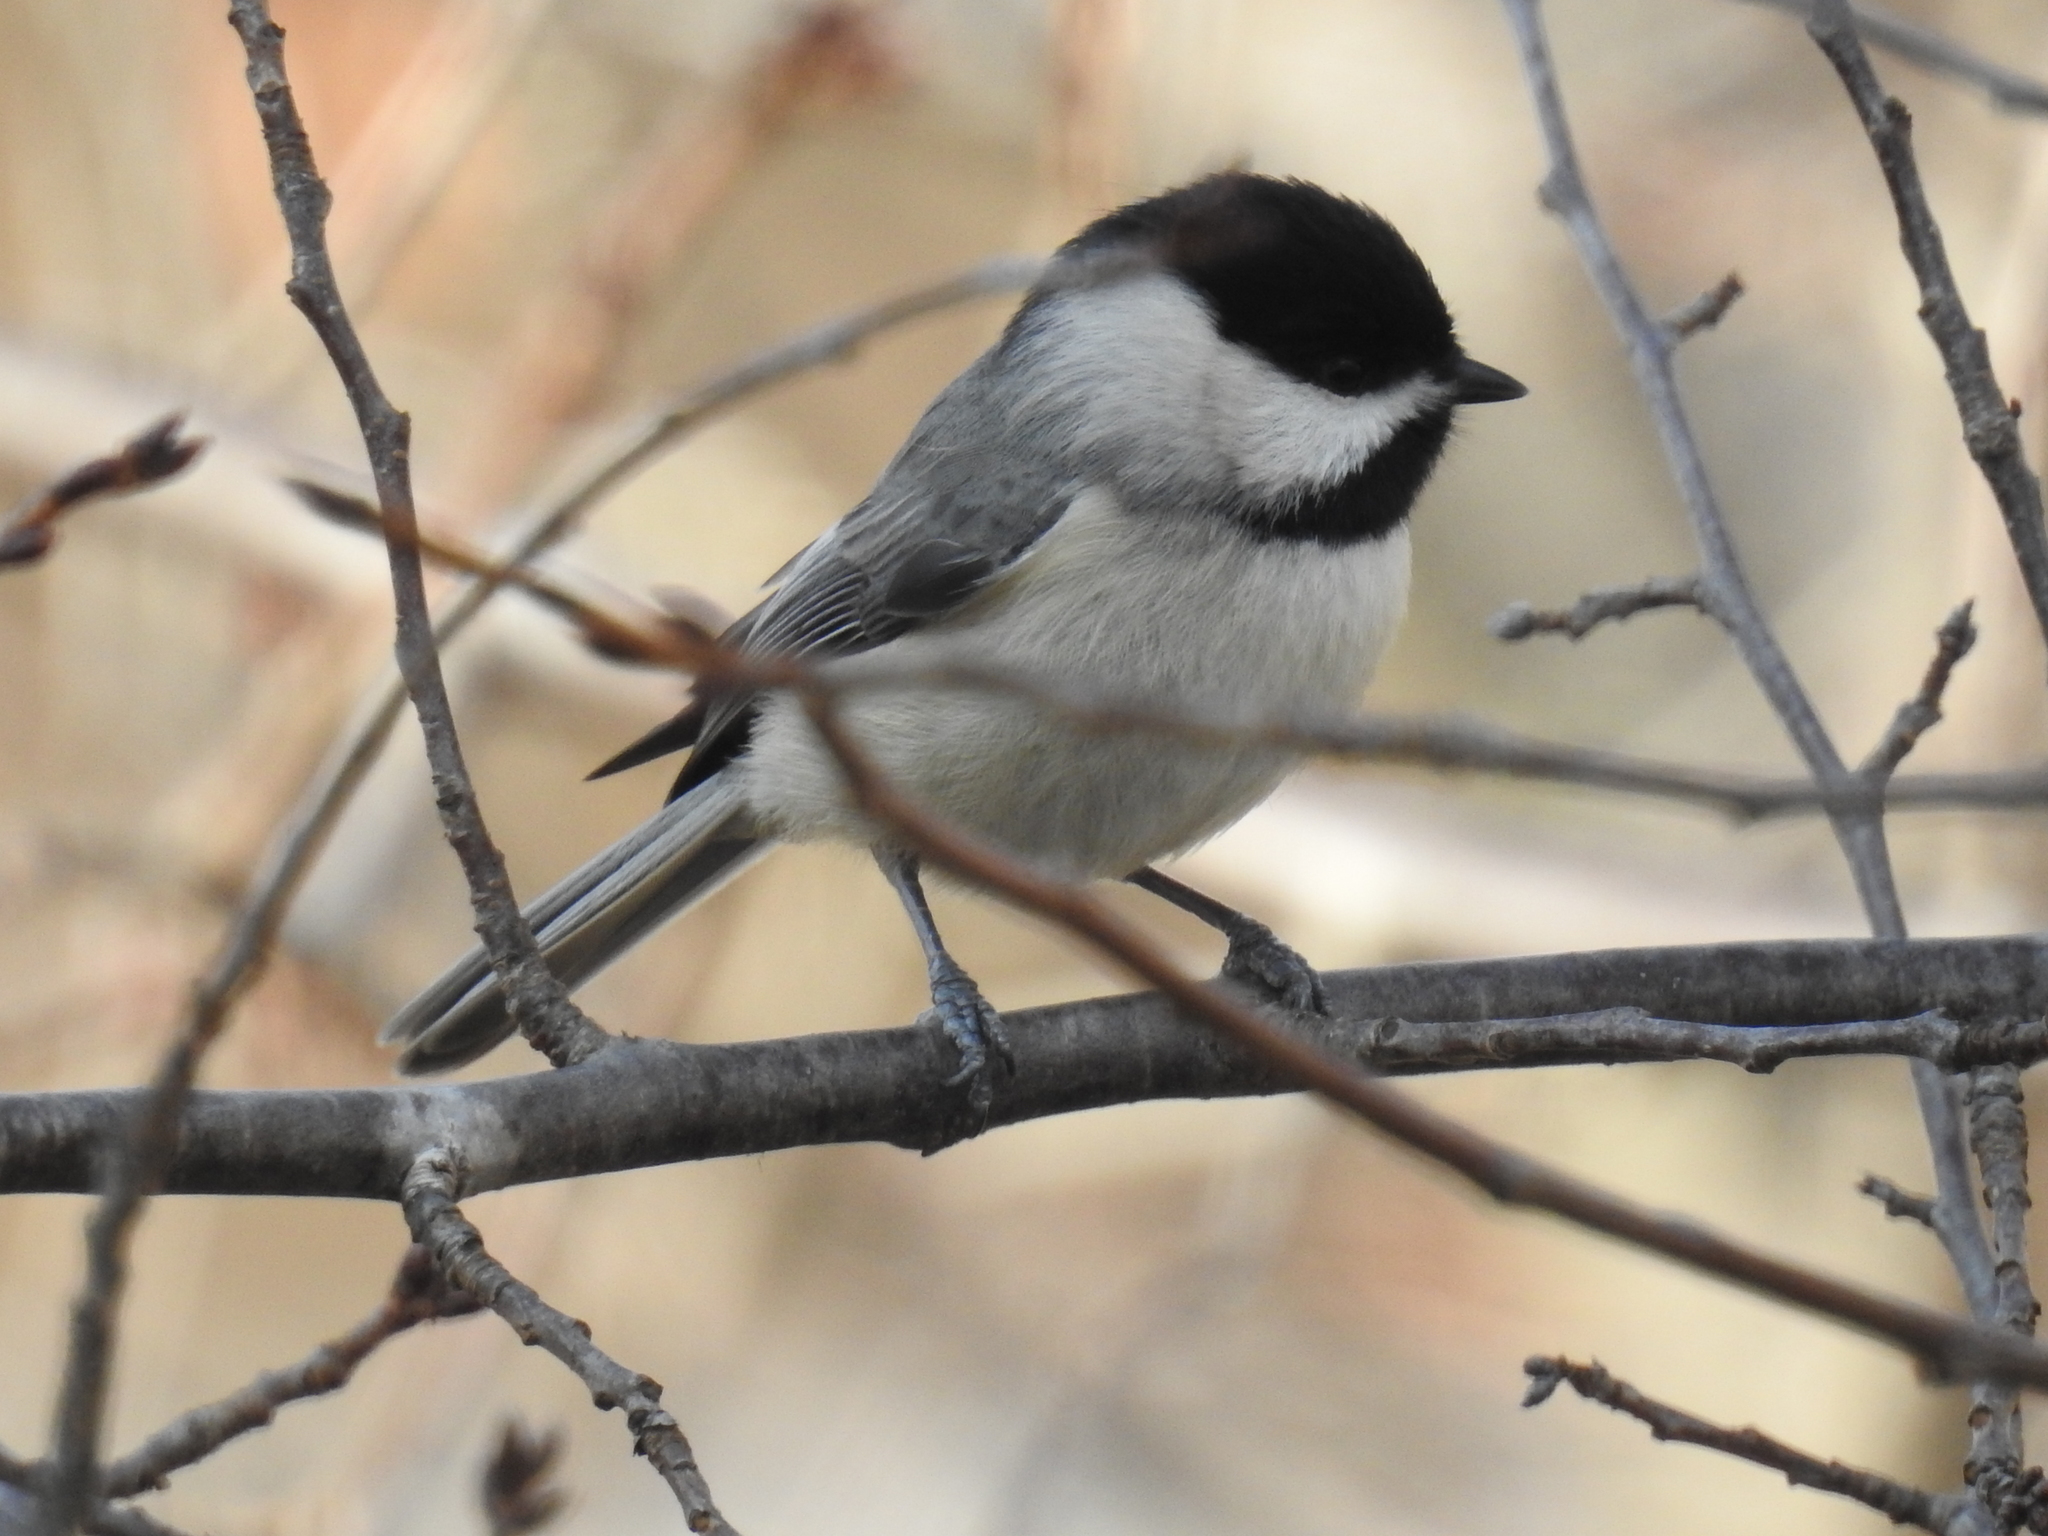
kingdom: Animalia
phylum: Chordata
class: Aves
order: Passeriformes
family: Paridae
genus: Poecile
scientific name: Poecile carolinensis
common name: Carolina chickadee
